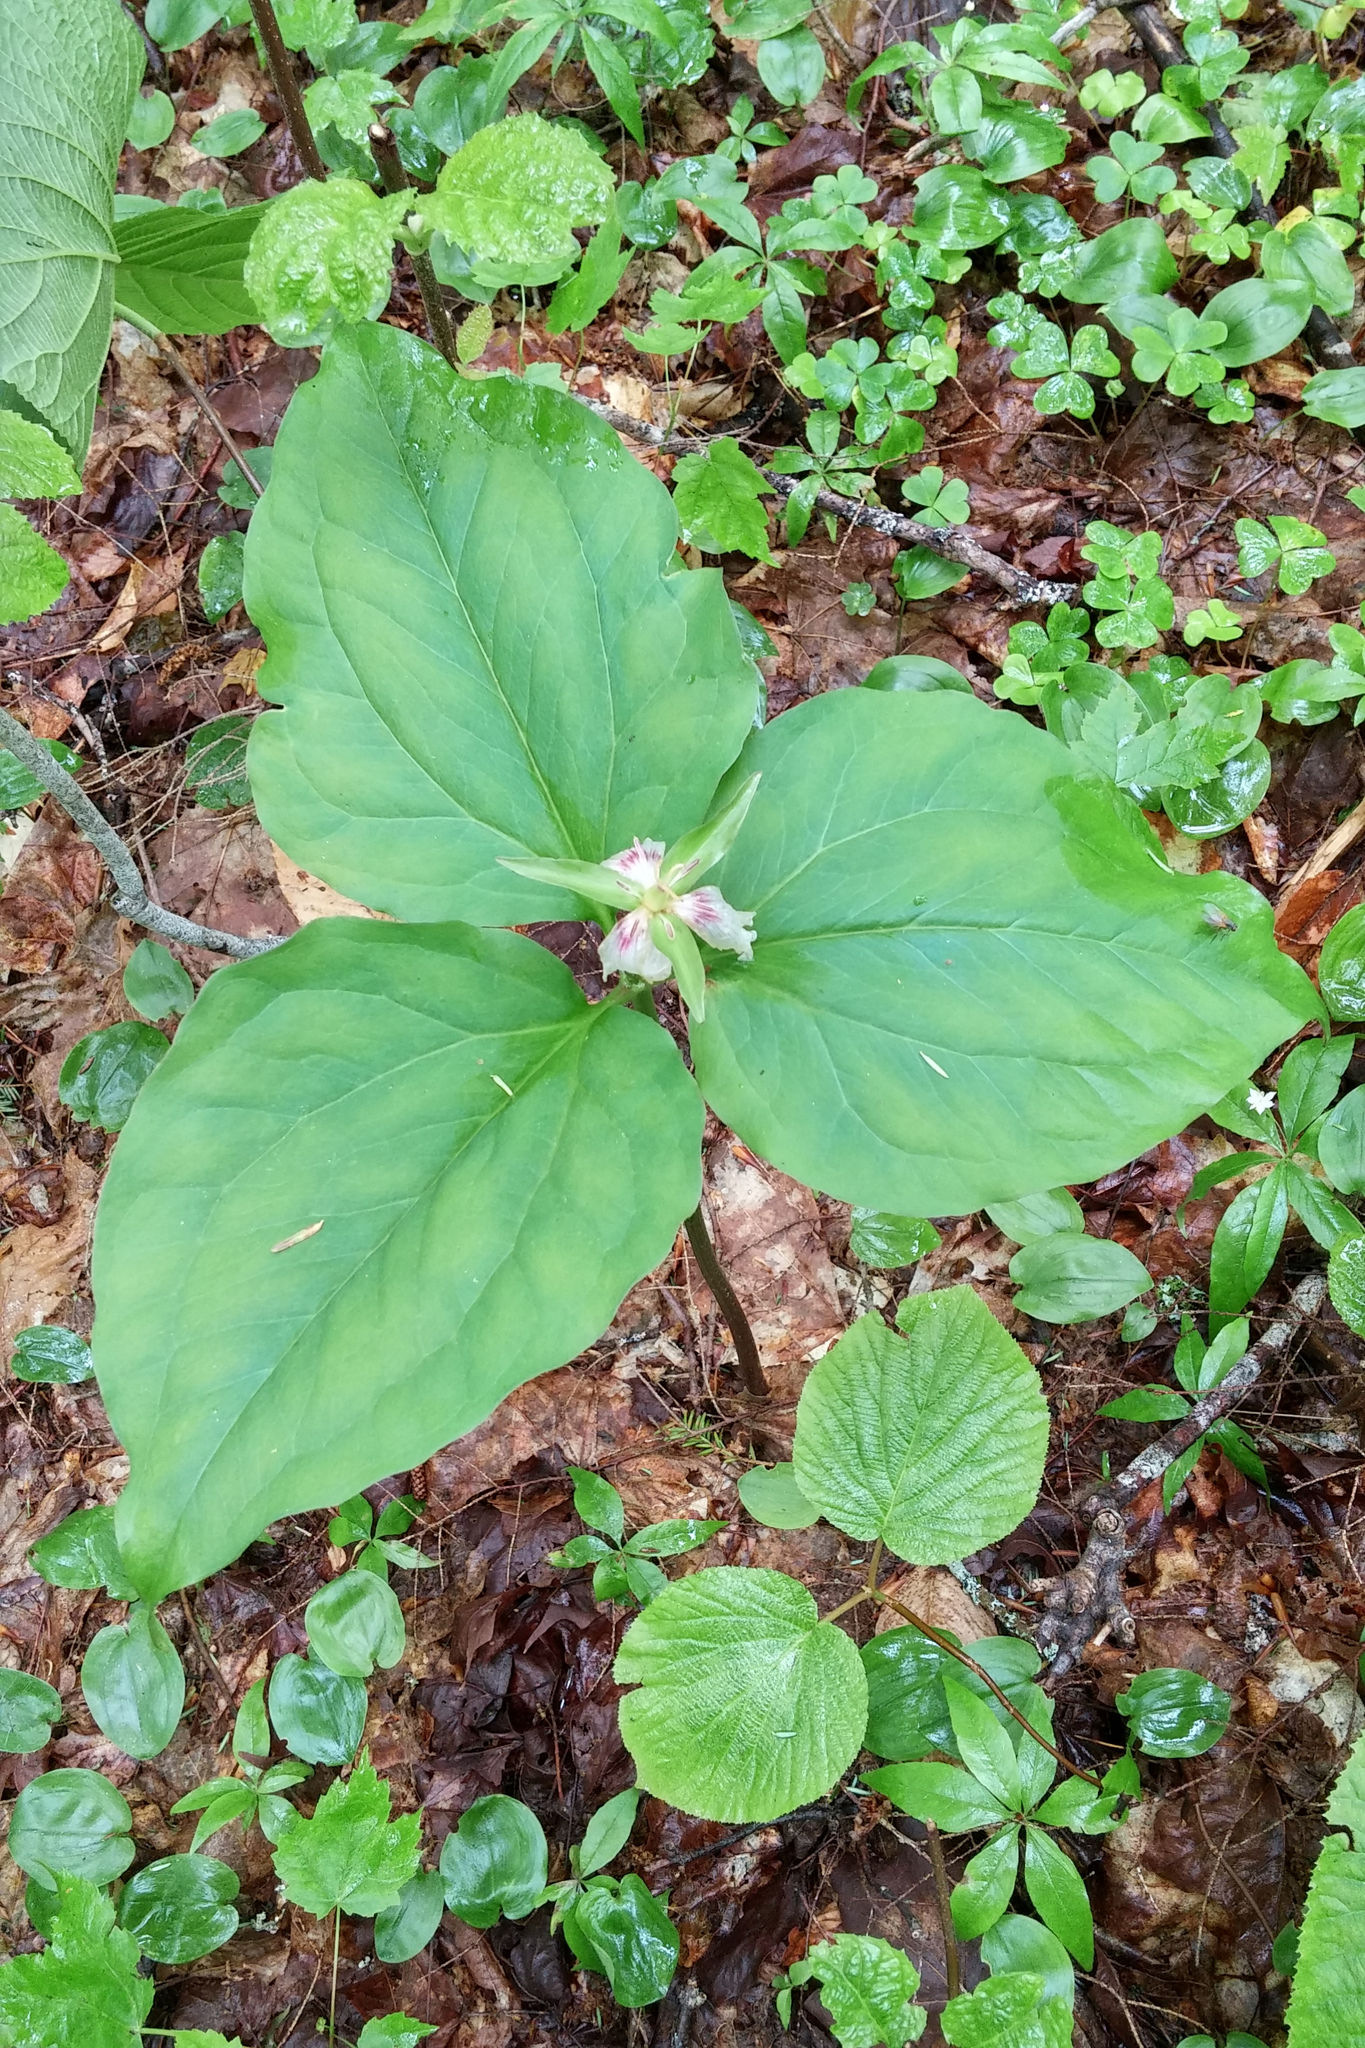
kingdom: Plantae
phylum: Tracheophyta
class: Liliopsida
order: Liliales
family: Melanthiaceae
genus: Trillium
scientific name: Trillium undulatum
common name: Paint trillium
